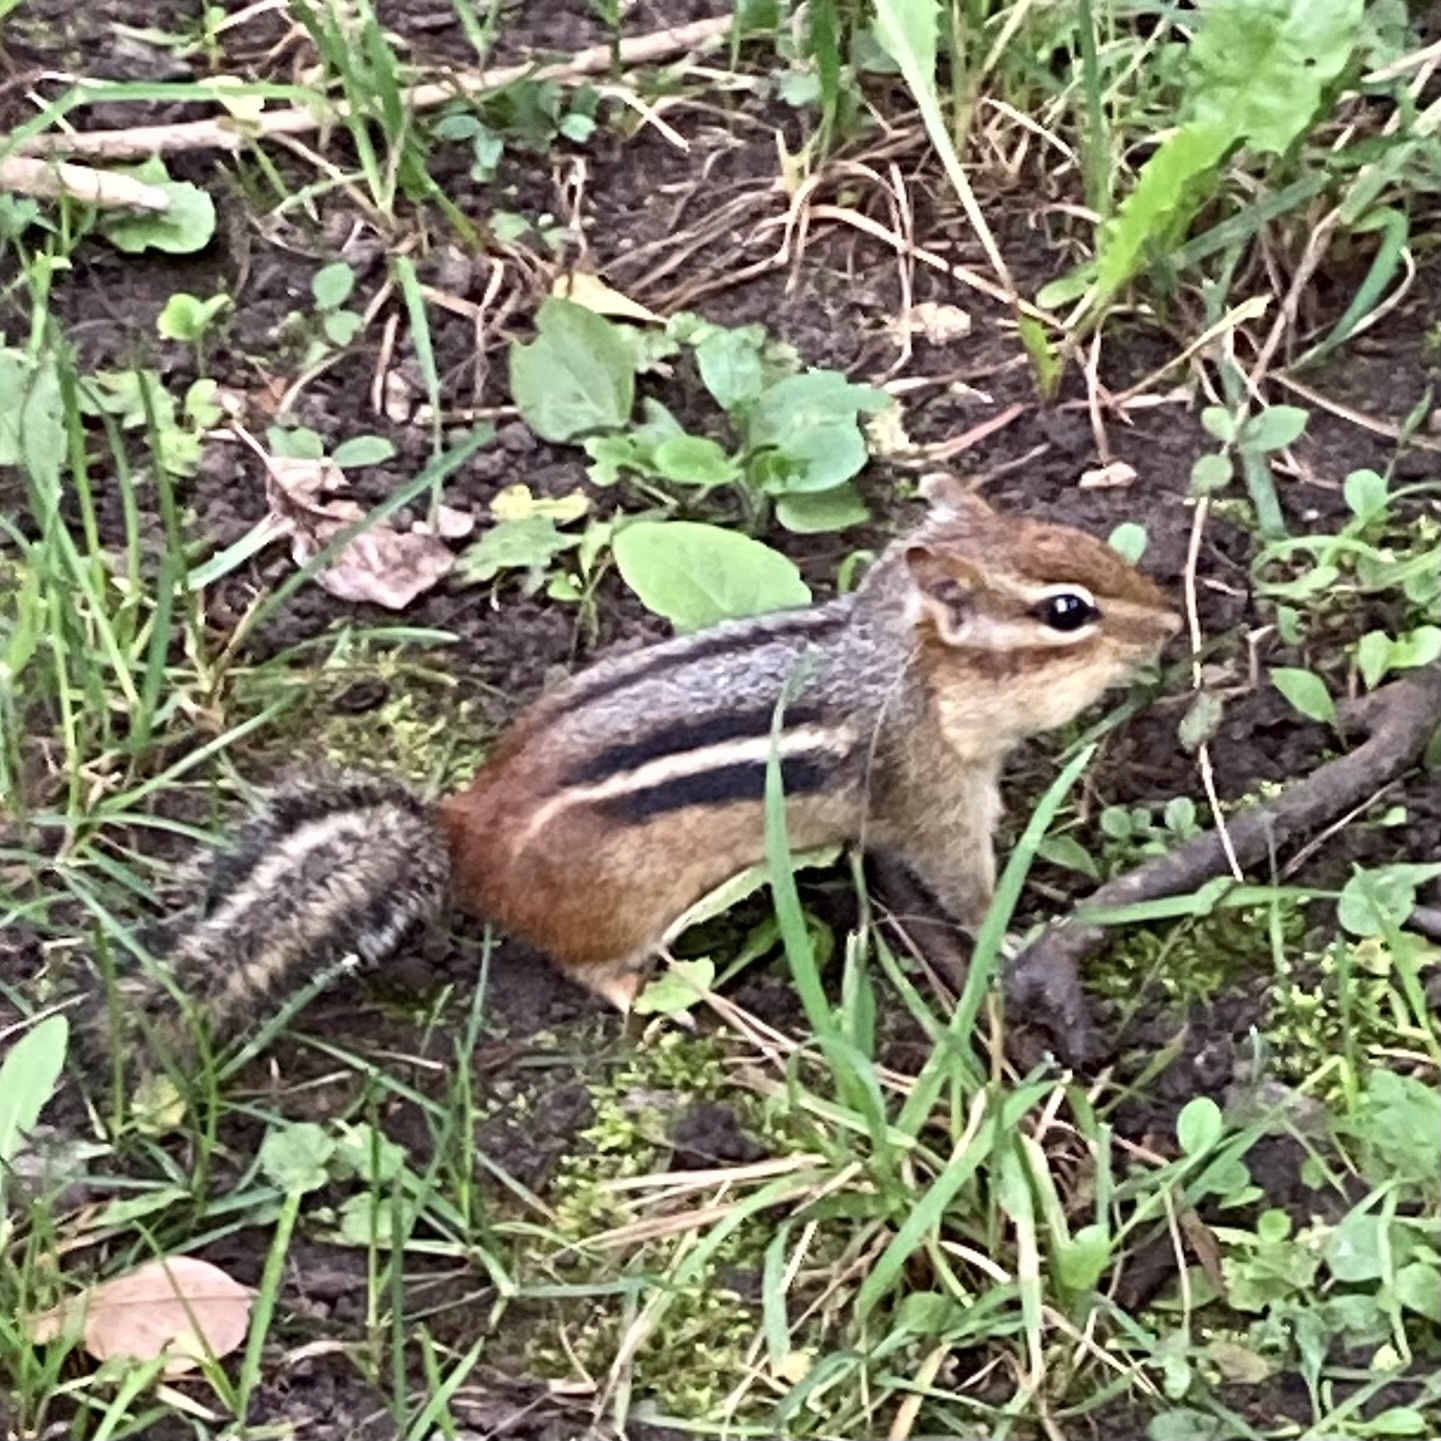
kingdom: Animalia
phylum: Chordata
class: Mammalia
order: Rodentia
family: Sciuridae
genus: Tamias
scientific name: Tamias striatus
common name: Eastern chipmunk
